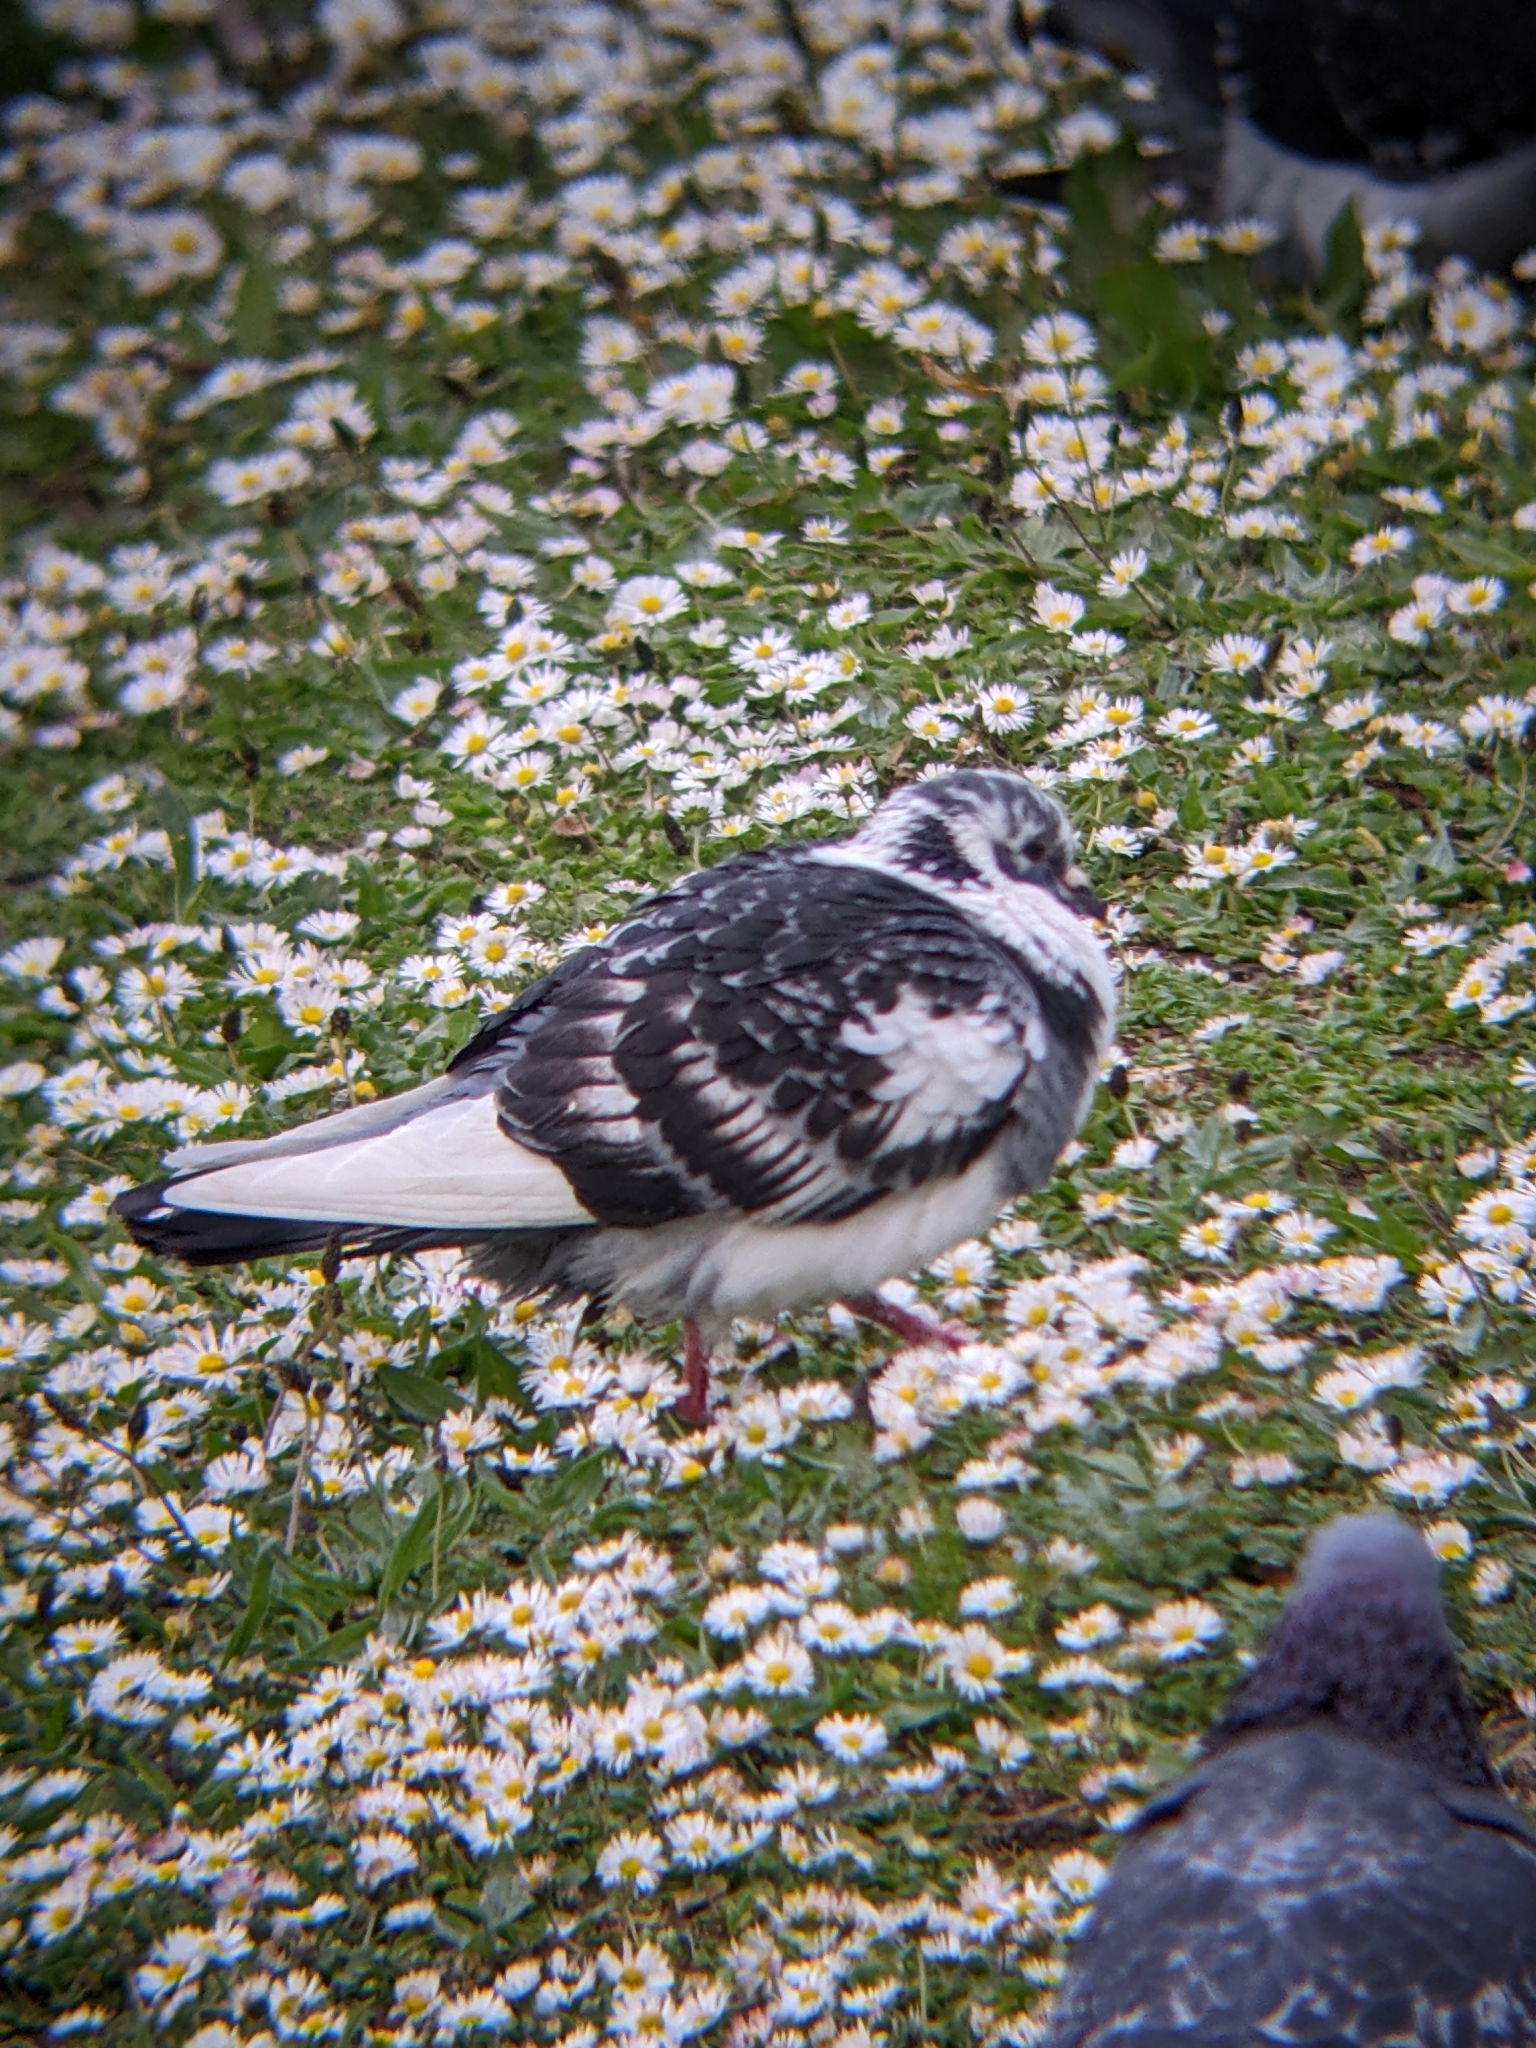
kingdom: Animalia
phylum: Chordata
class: Aves
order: Columbiformes
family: Columbidae
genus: Columba
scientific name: Columba livia
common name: Rock pigeon
